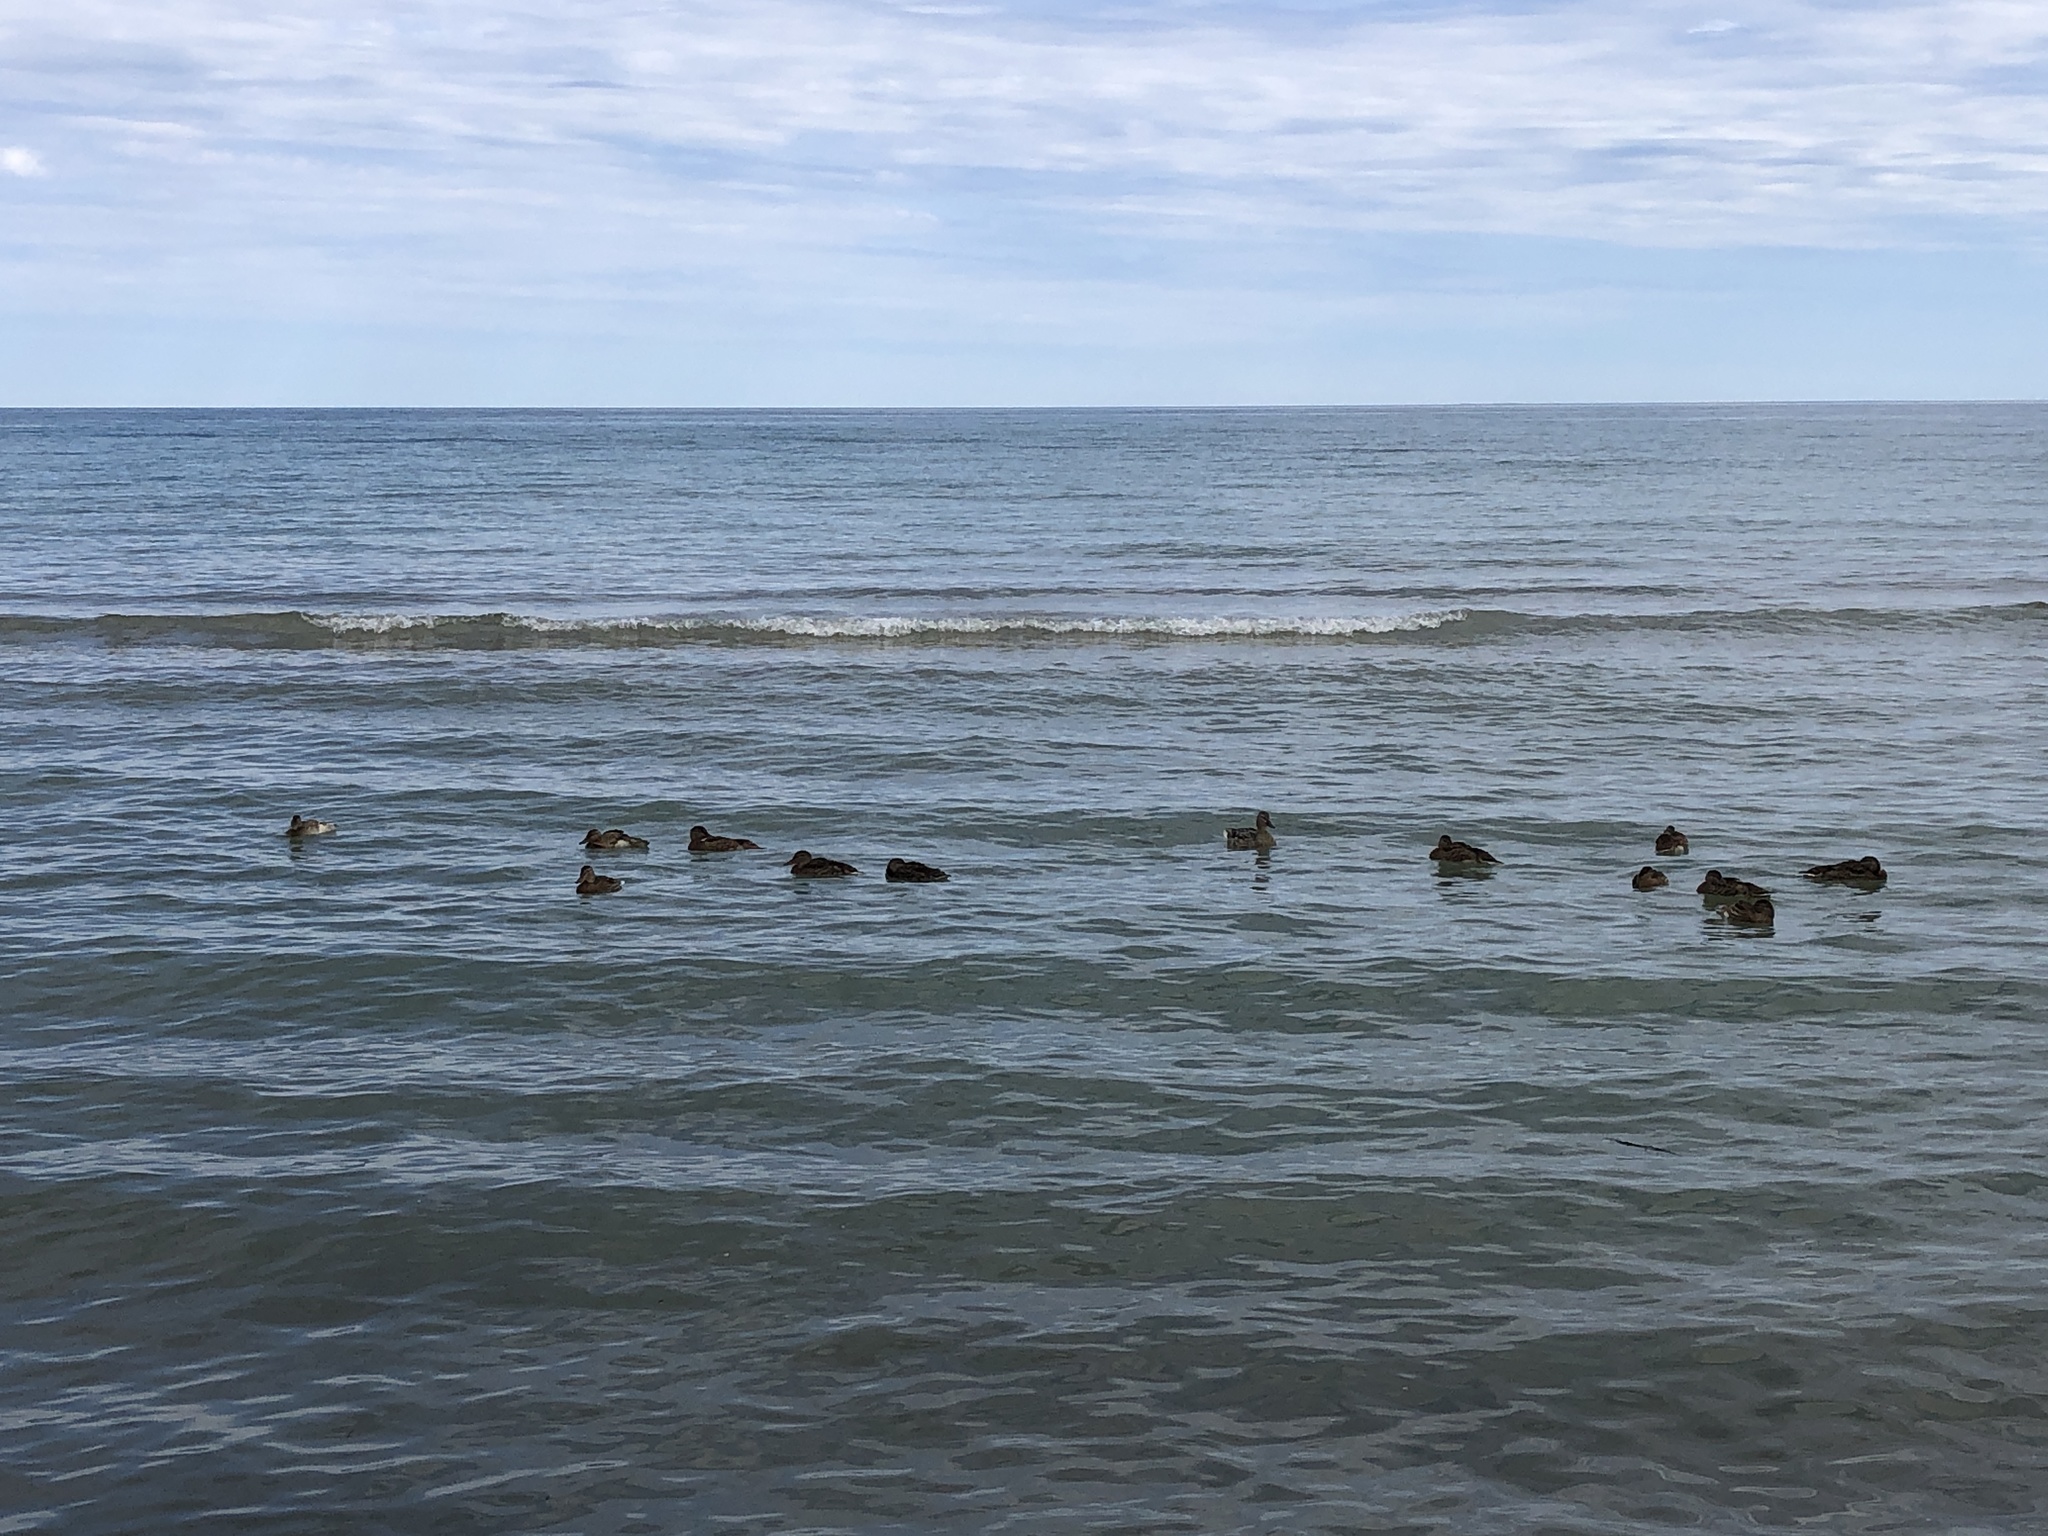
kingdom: Animalia
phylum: Chordata
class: Aves
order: Anseriformes
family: Anatidae
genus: Anas
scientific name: Anas platyrhynchos
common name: Mallard
